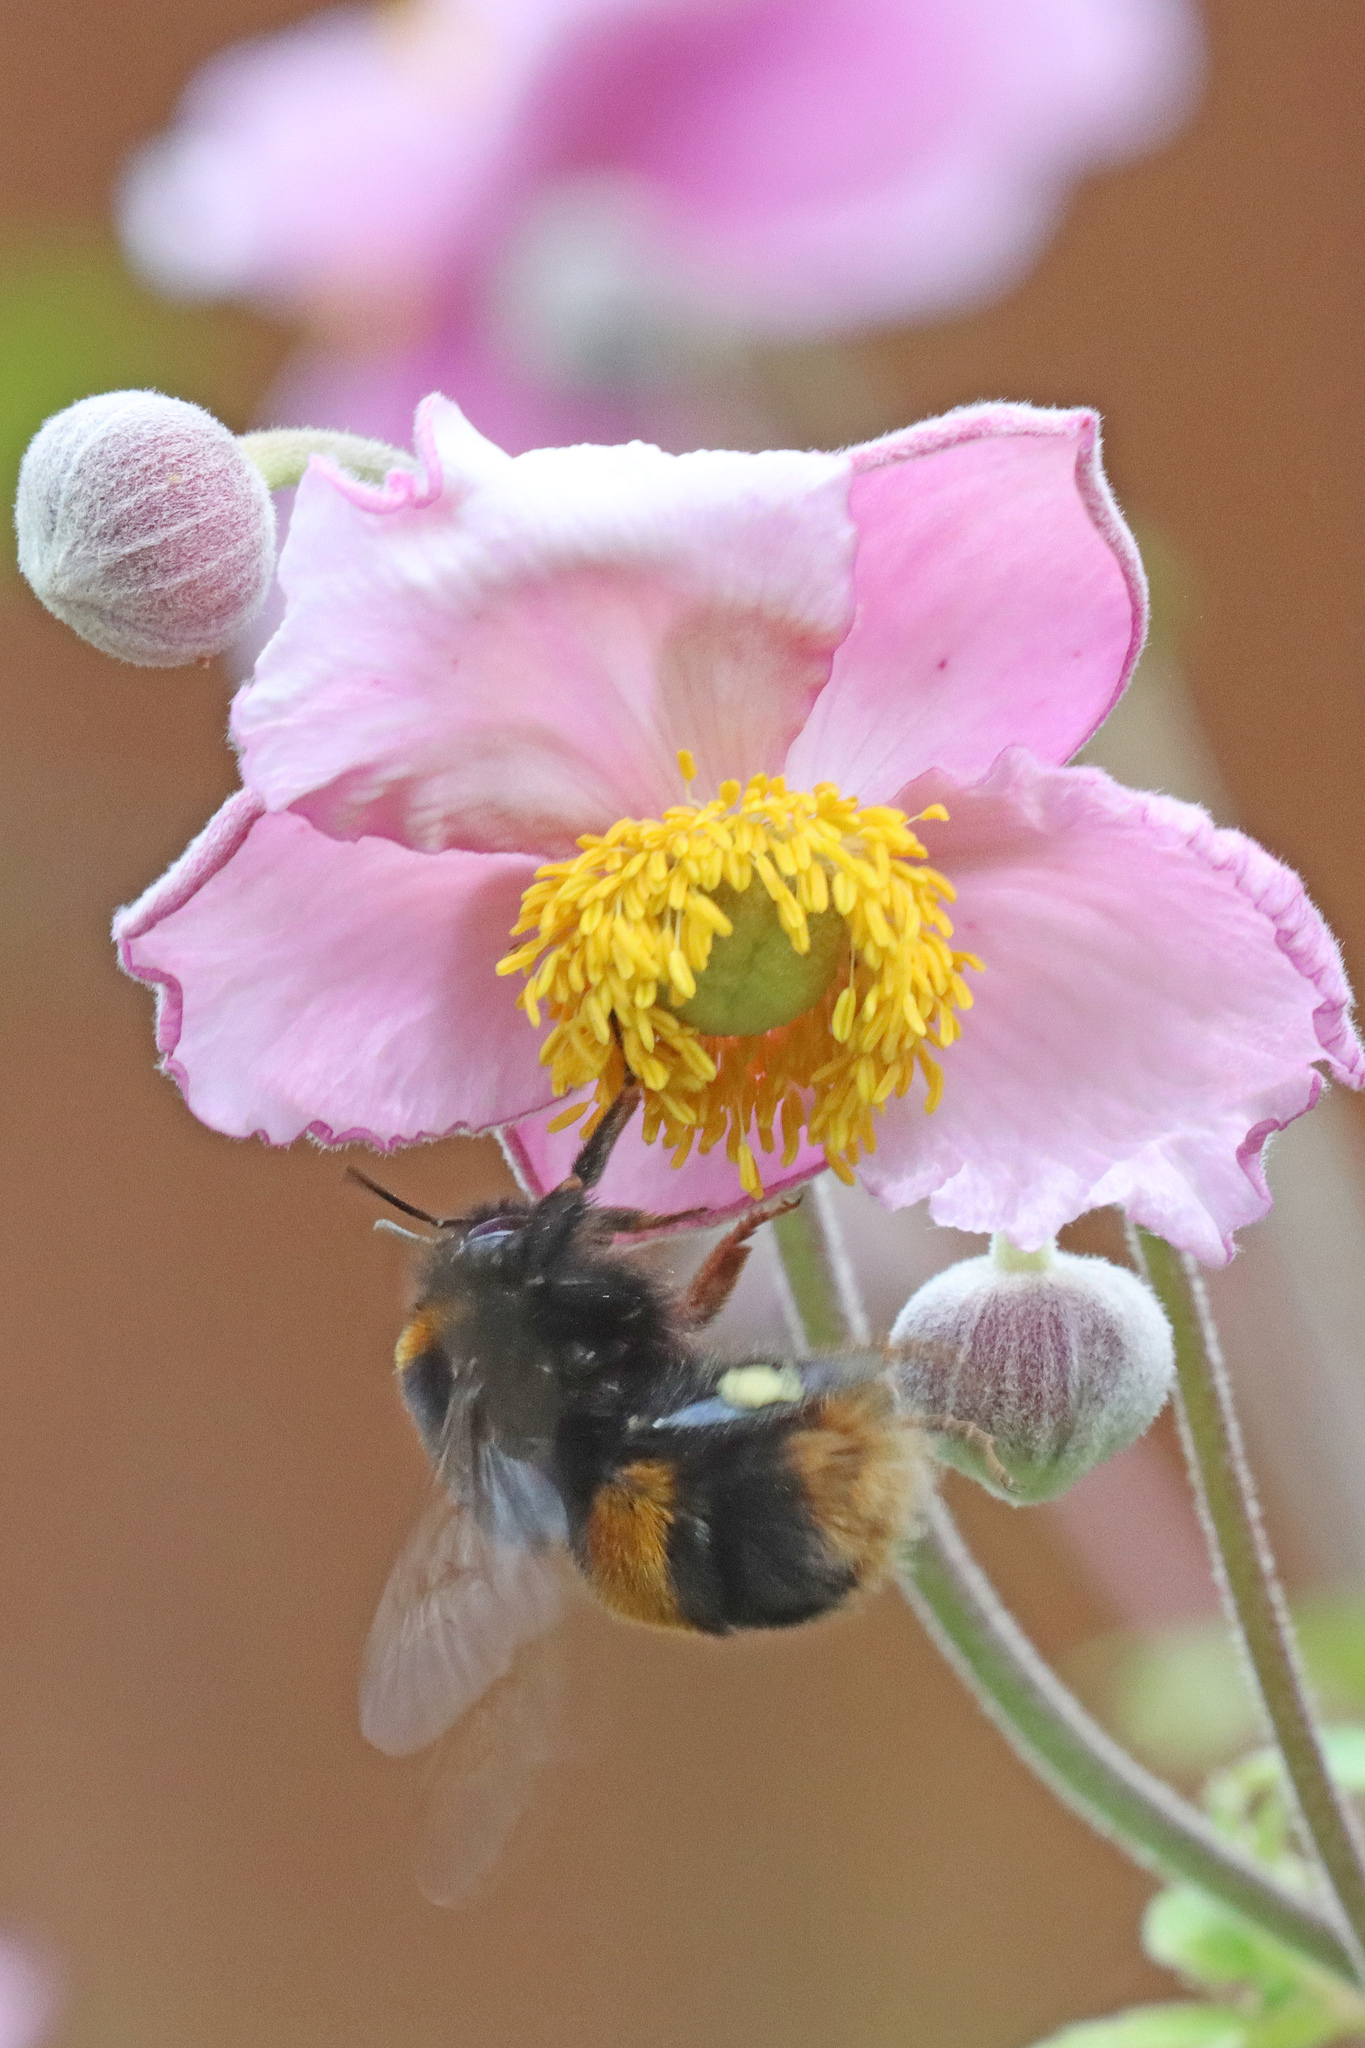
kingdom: Animalia
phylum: Arthropoda
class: Insecta
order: Hymenoptera
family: Apidae
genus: Bombus
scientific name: Bombus terrestris
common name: Buff-tailed bumblebee
